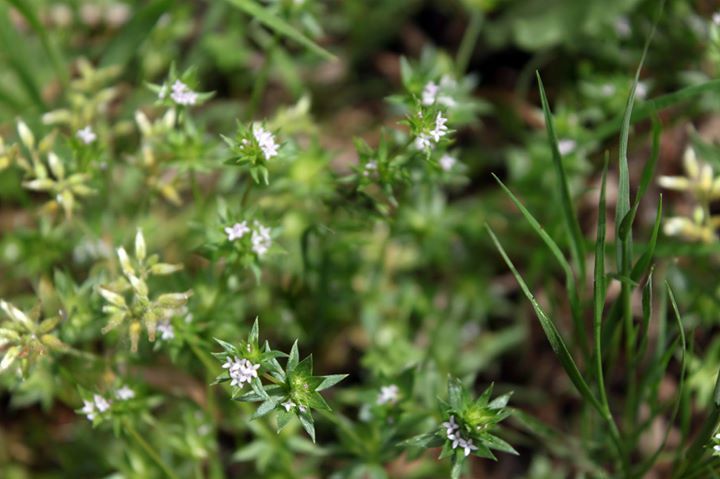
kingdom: Plantae
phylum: Tracheophyta
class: Magnoliopsida
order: Gentianales
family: Rubiaceae
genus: Sherardia
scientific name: Sherardia arvensis
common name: Field madder
